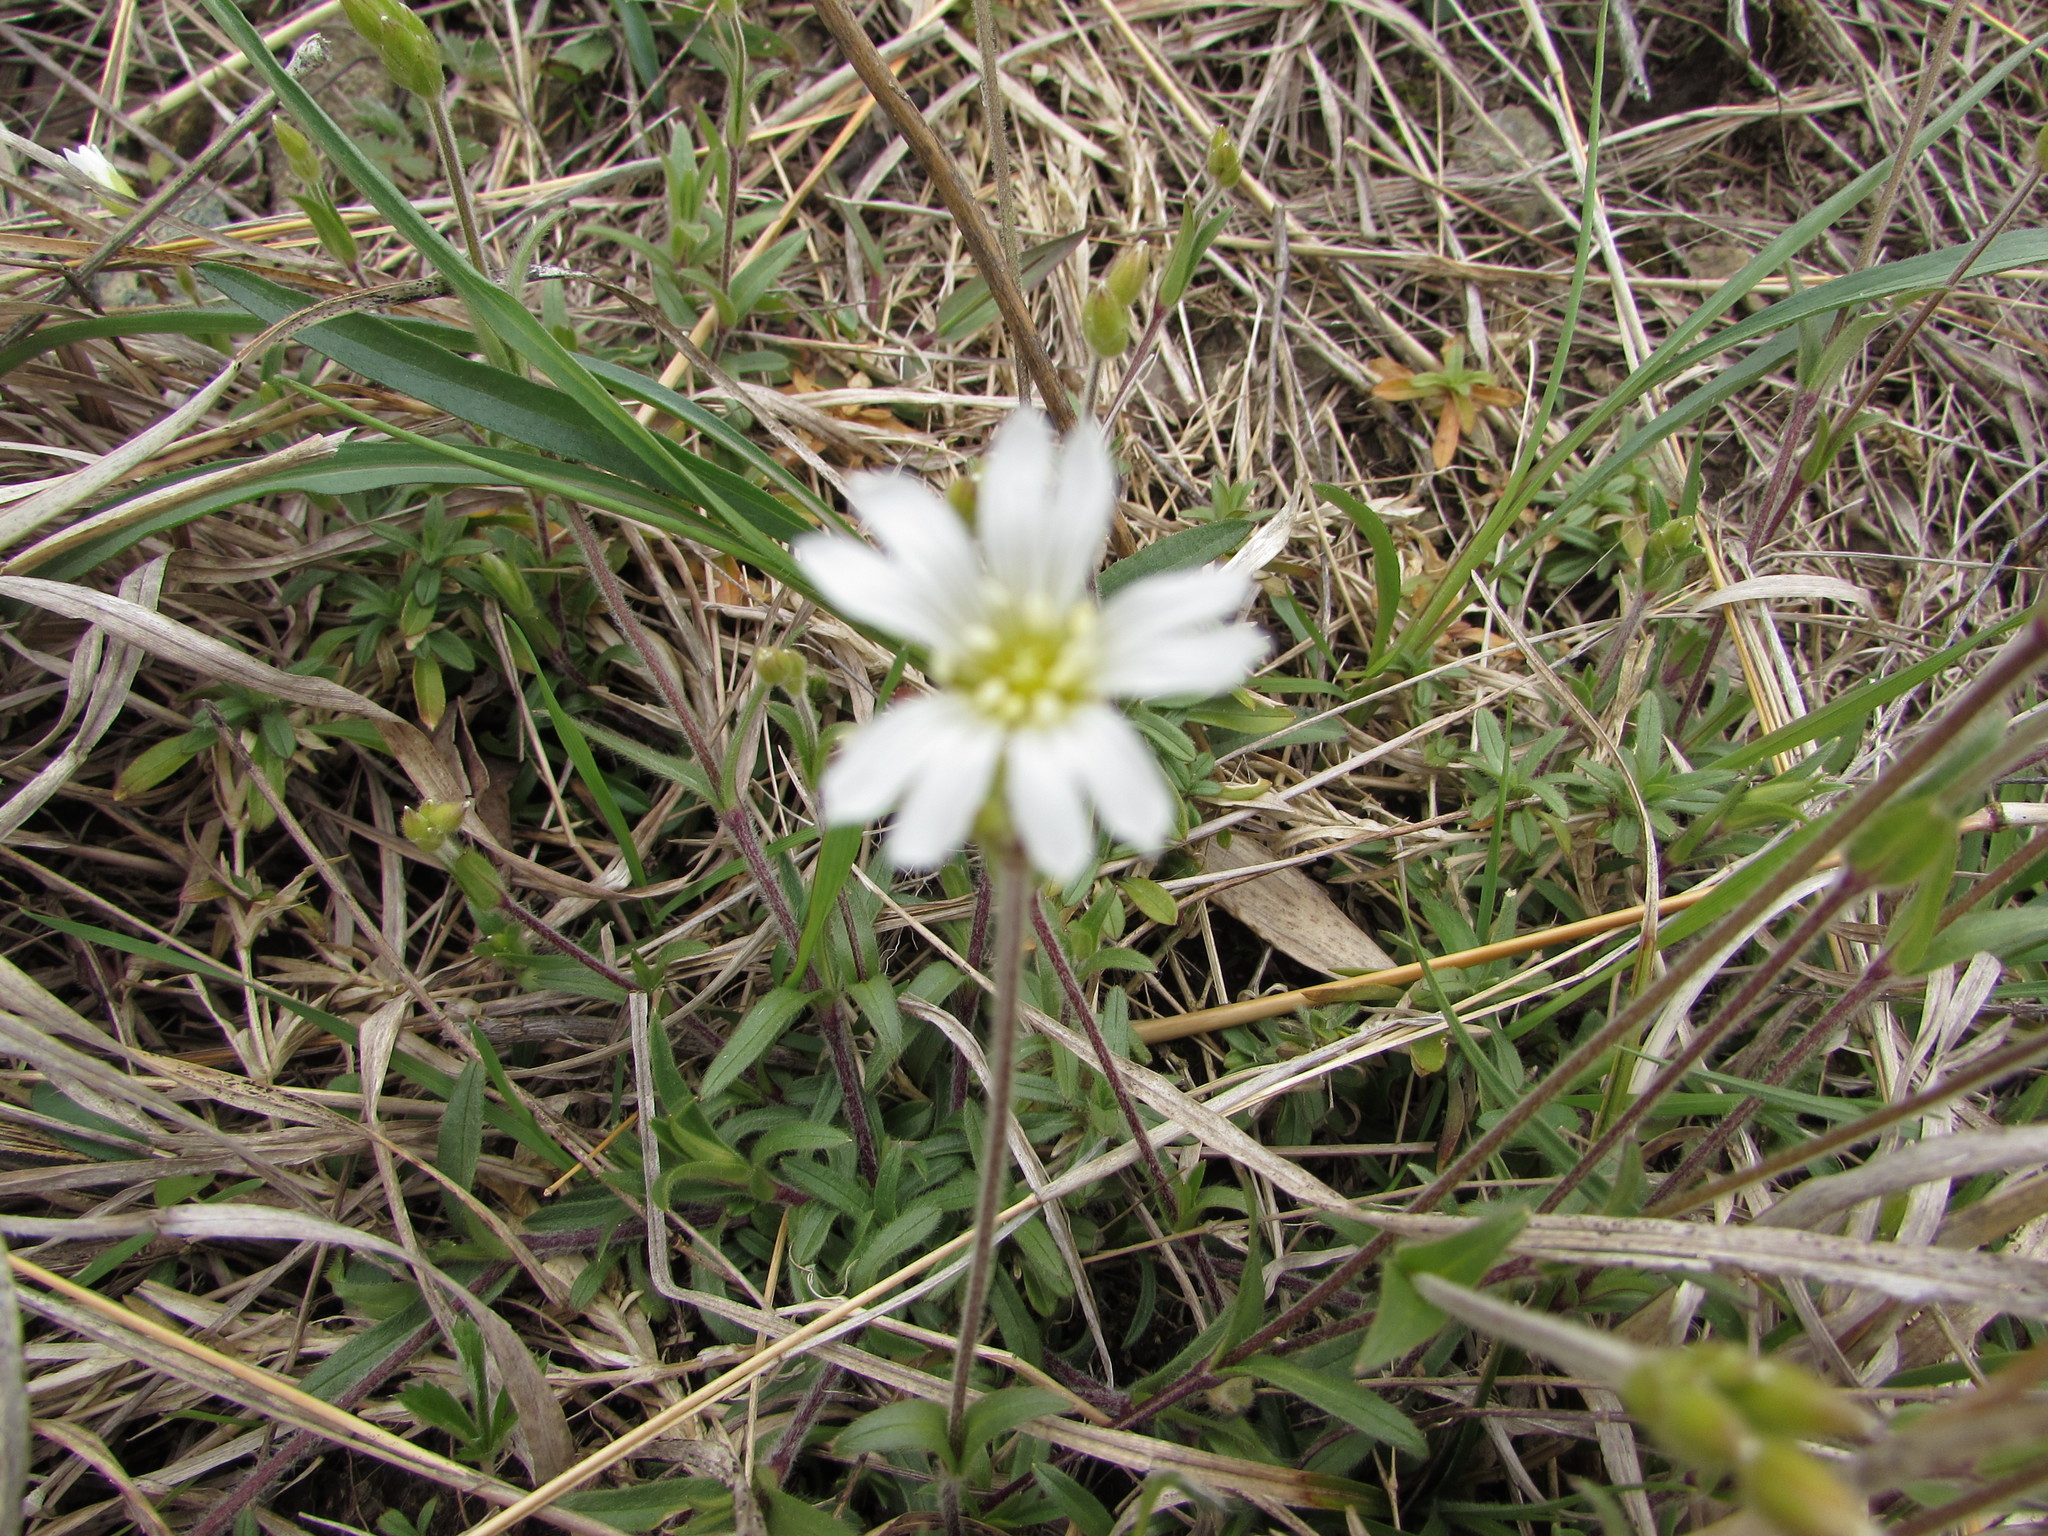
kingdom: Plantae
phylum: Tracheophyta
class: Magnoliopsida
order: Caryophyllales
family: Caryophyllaceae
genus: Cerastium
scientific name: Cerastium velutinum
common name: Barren chickweed
